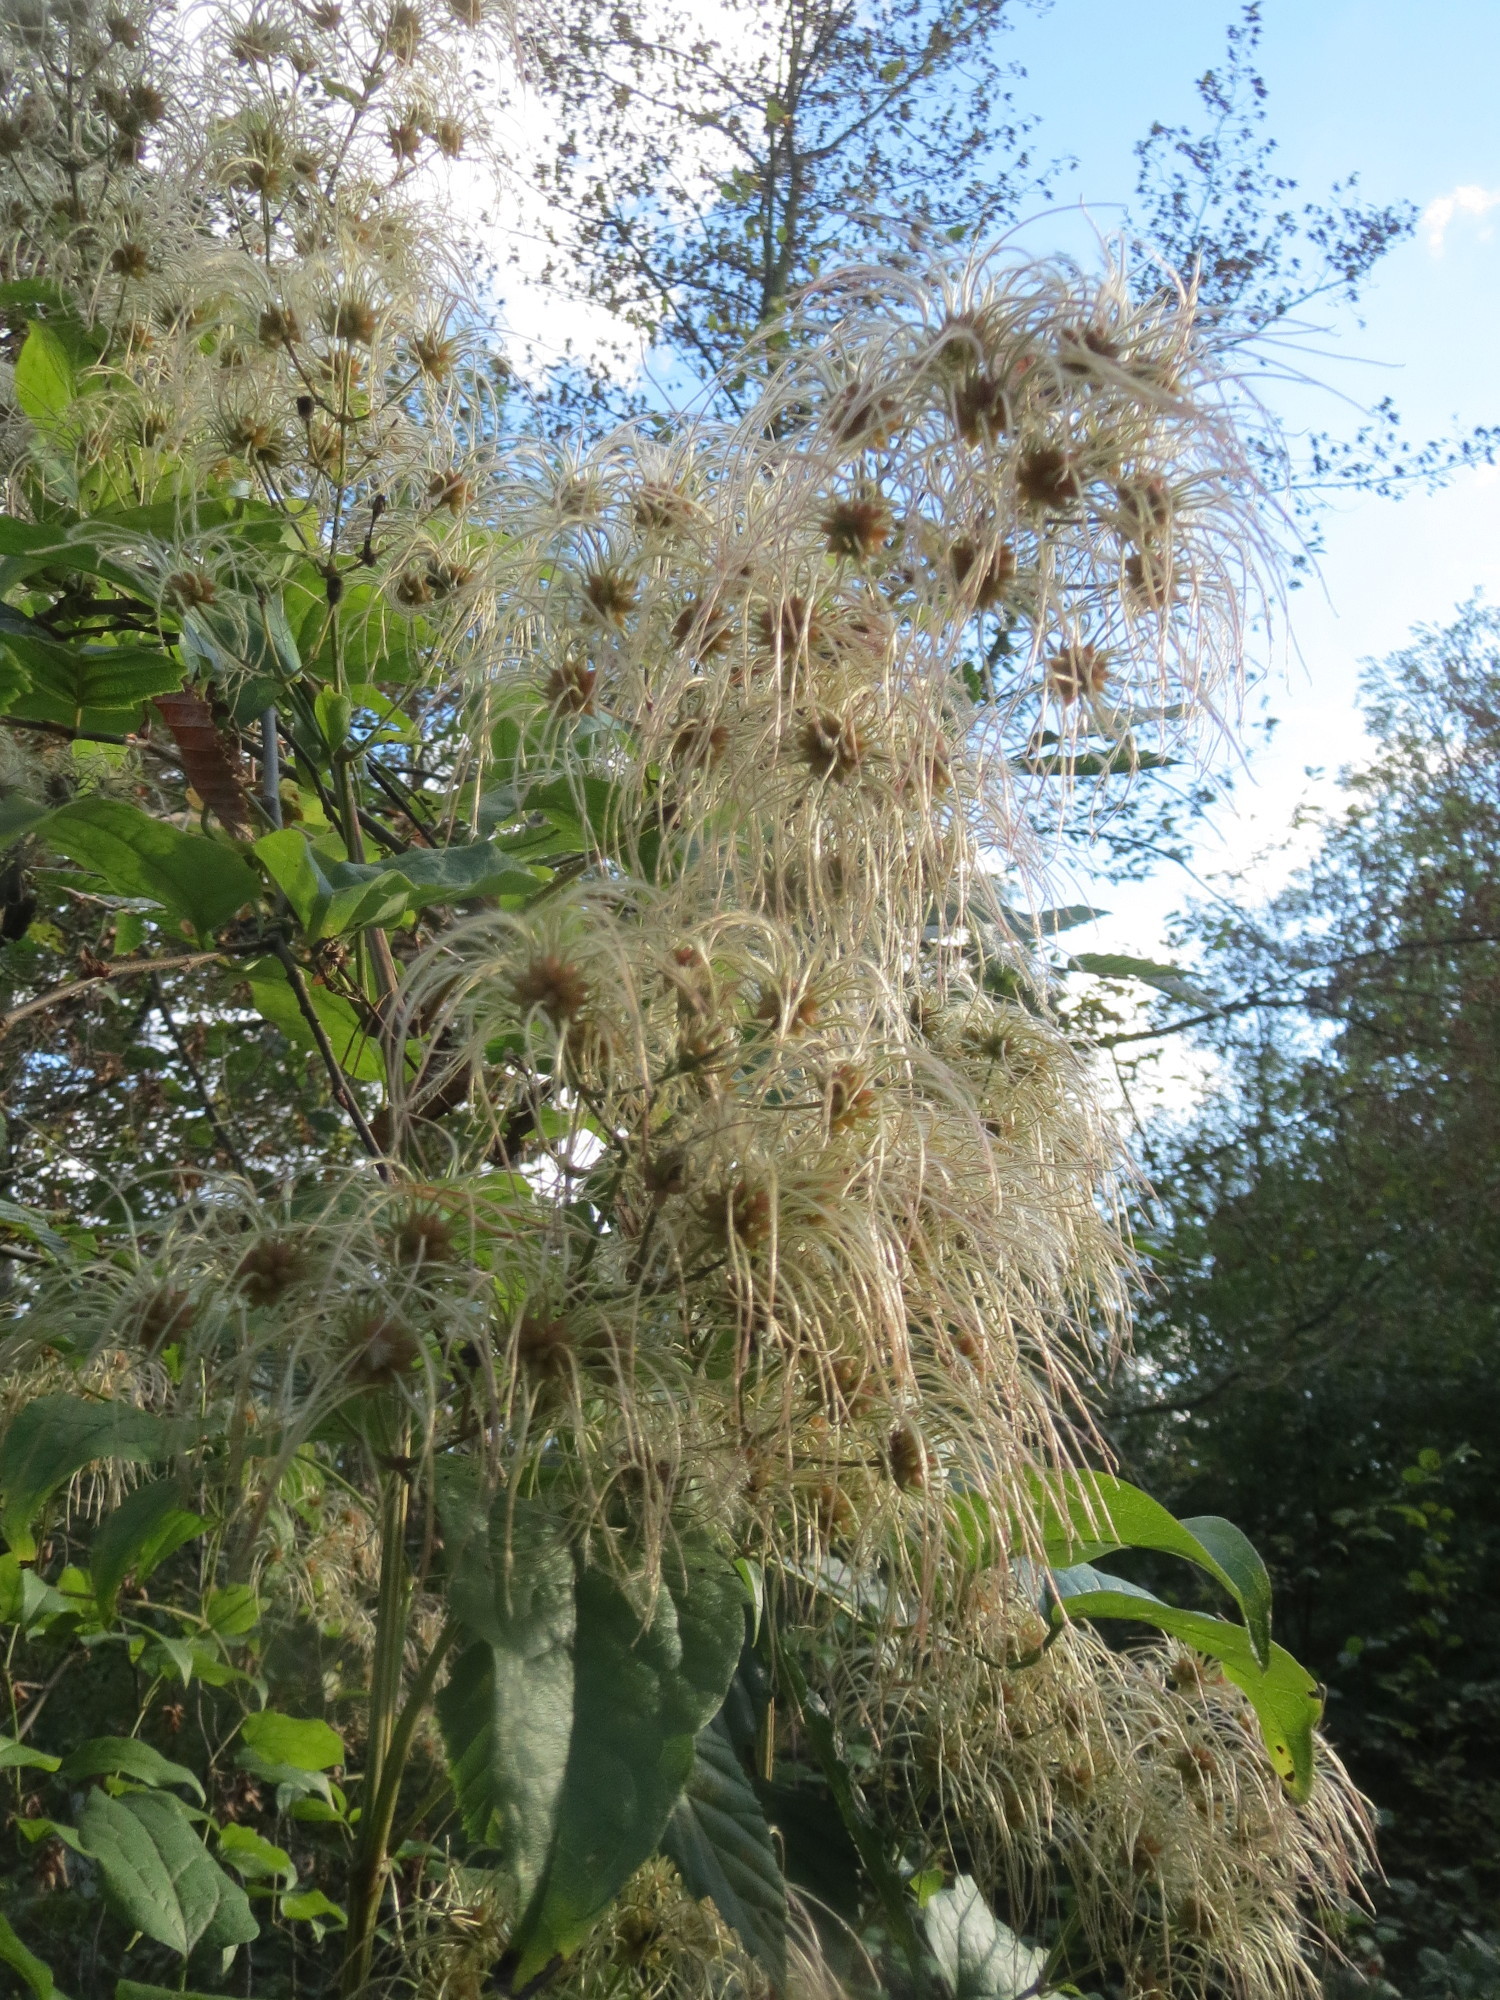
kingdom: Plantae
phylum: Tracheophyta
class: Magnoliopsida
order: Ranunculales
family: Ranunculaceae
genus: Clematis
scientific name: Clematis vitalba
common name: Evergreen clematis
